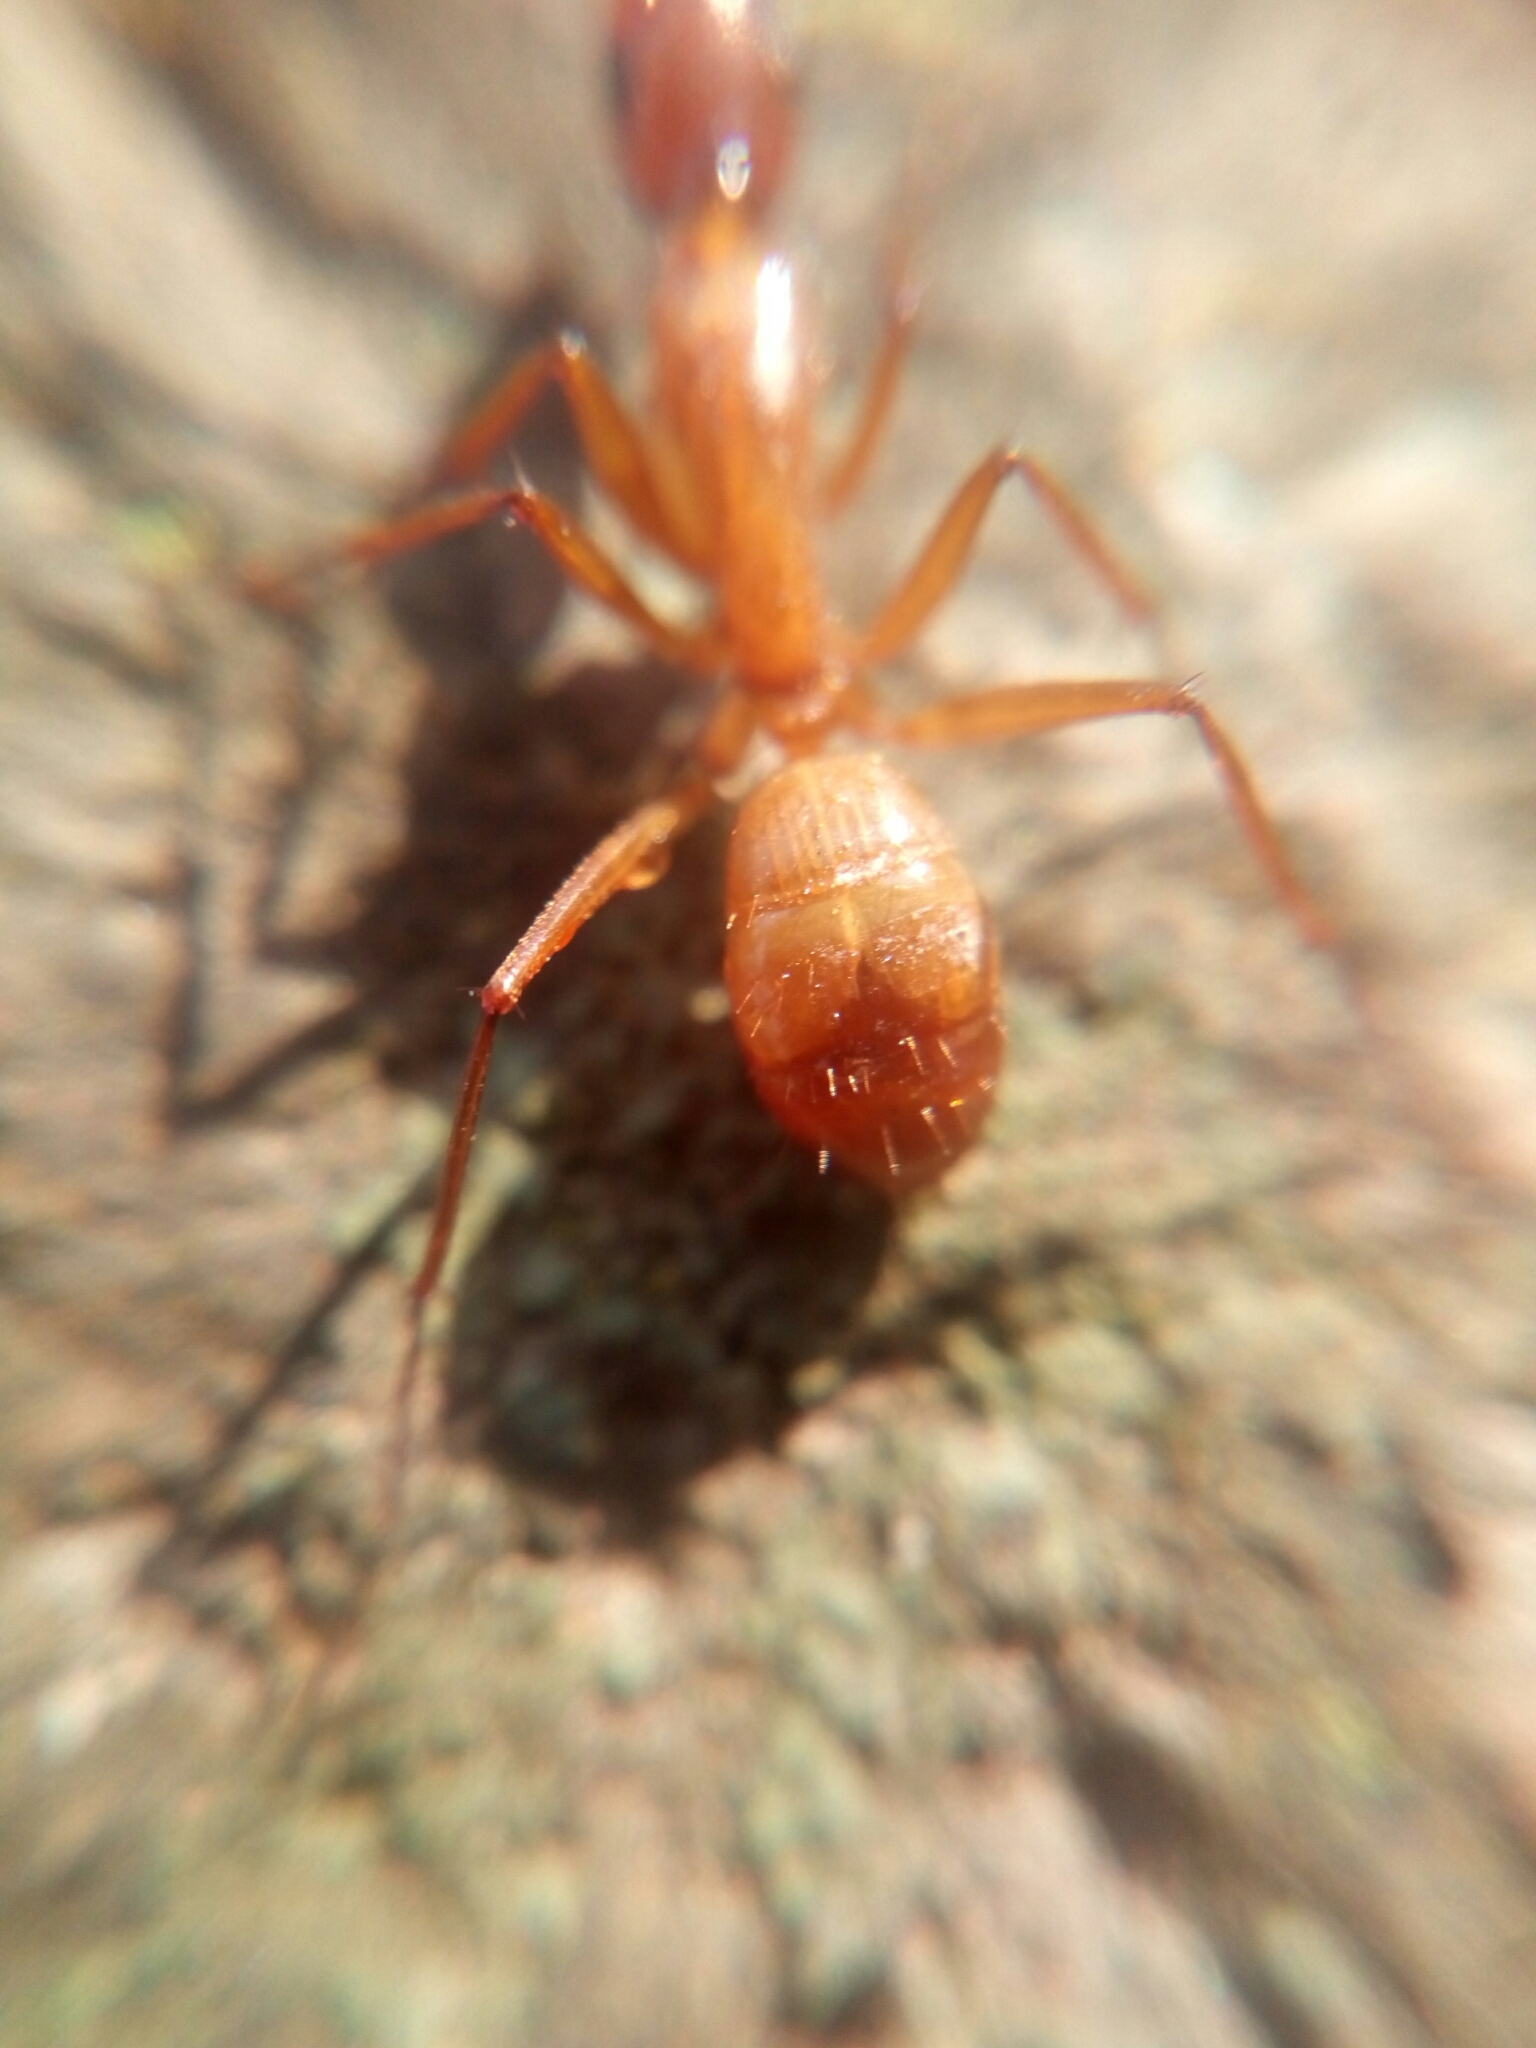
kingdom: Animalia
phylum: Arthropoda
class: Insecta
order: Hymenoptera
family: Formicidae
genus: Camponotus
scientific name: Camponotus castaneus
